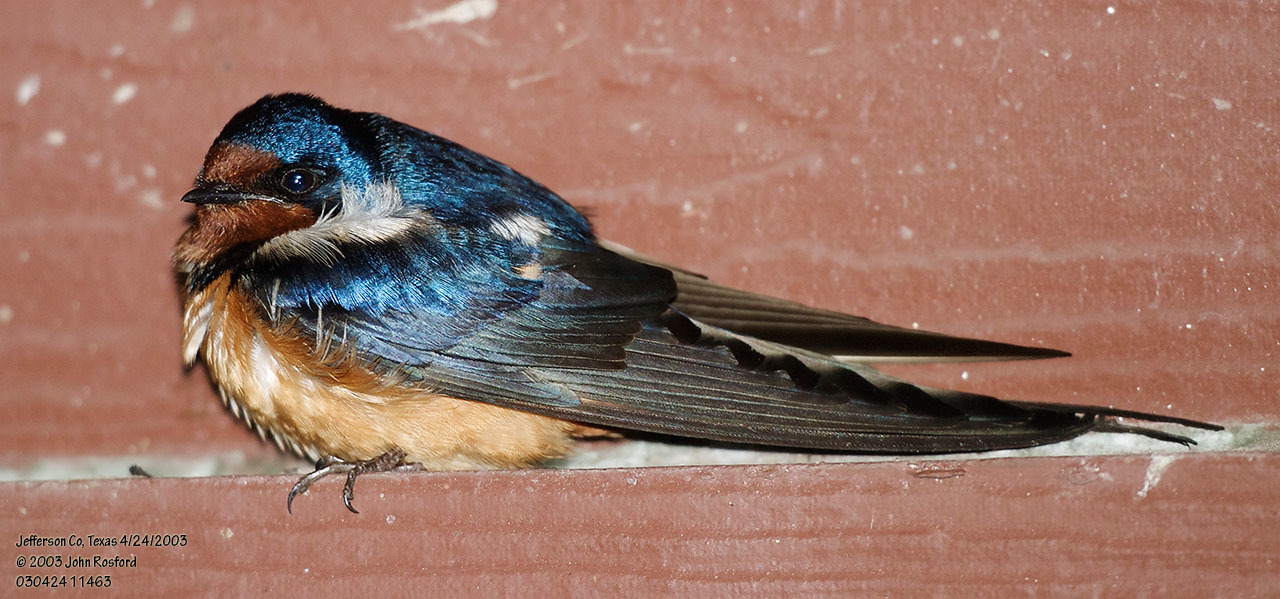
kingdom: Animalia
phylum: Chordata
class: Aves
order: Passeriformes
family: Hirundinidae
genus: Hirundo
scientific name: Hirundo rustica
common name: Barn swallow
